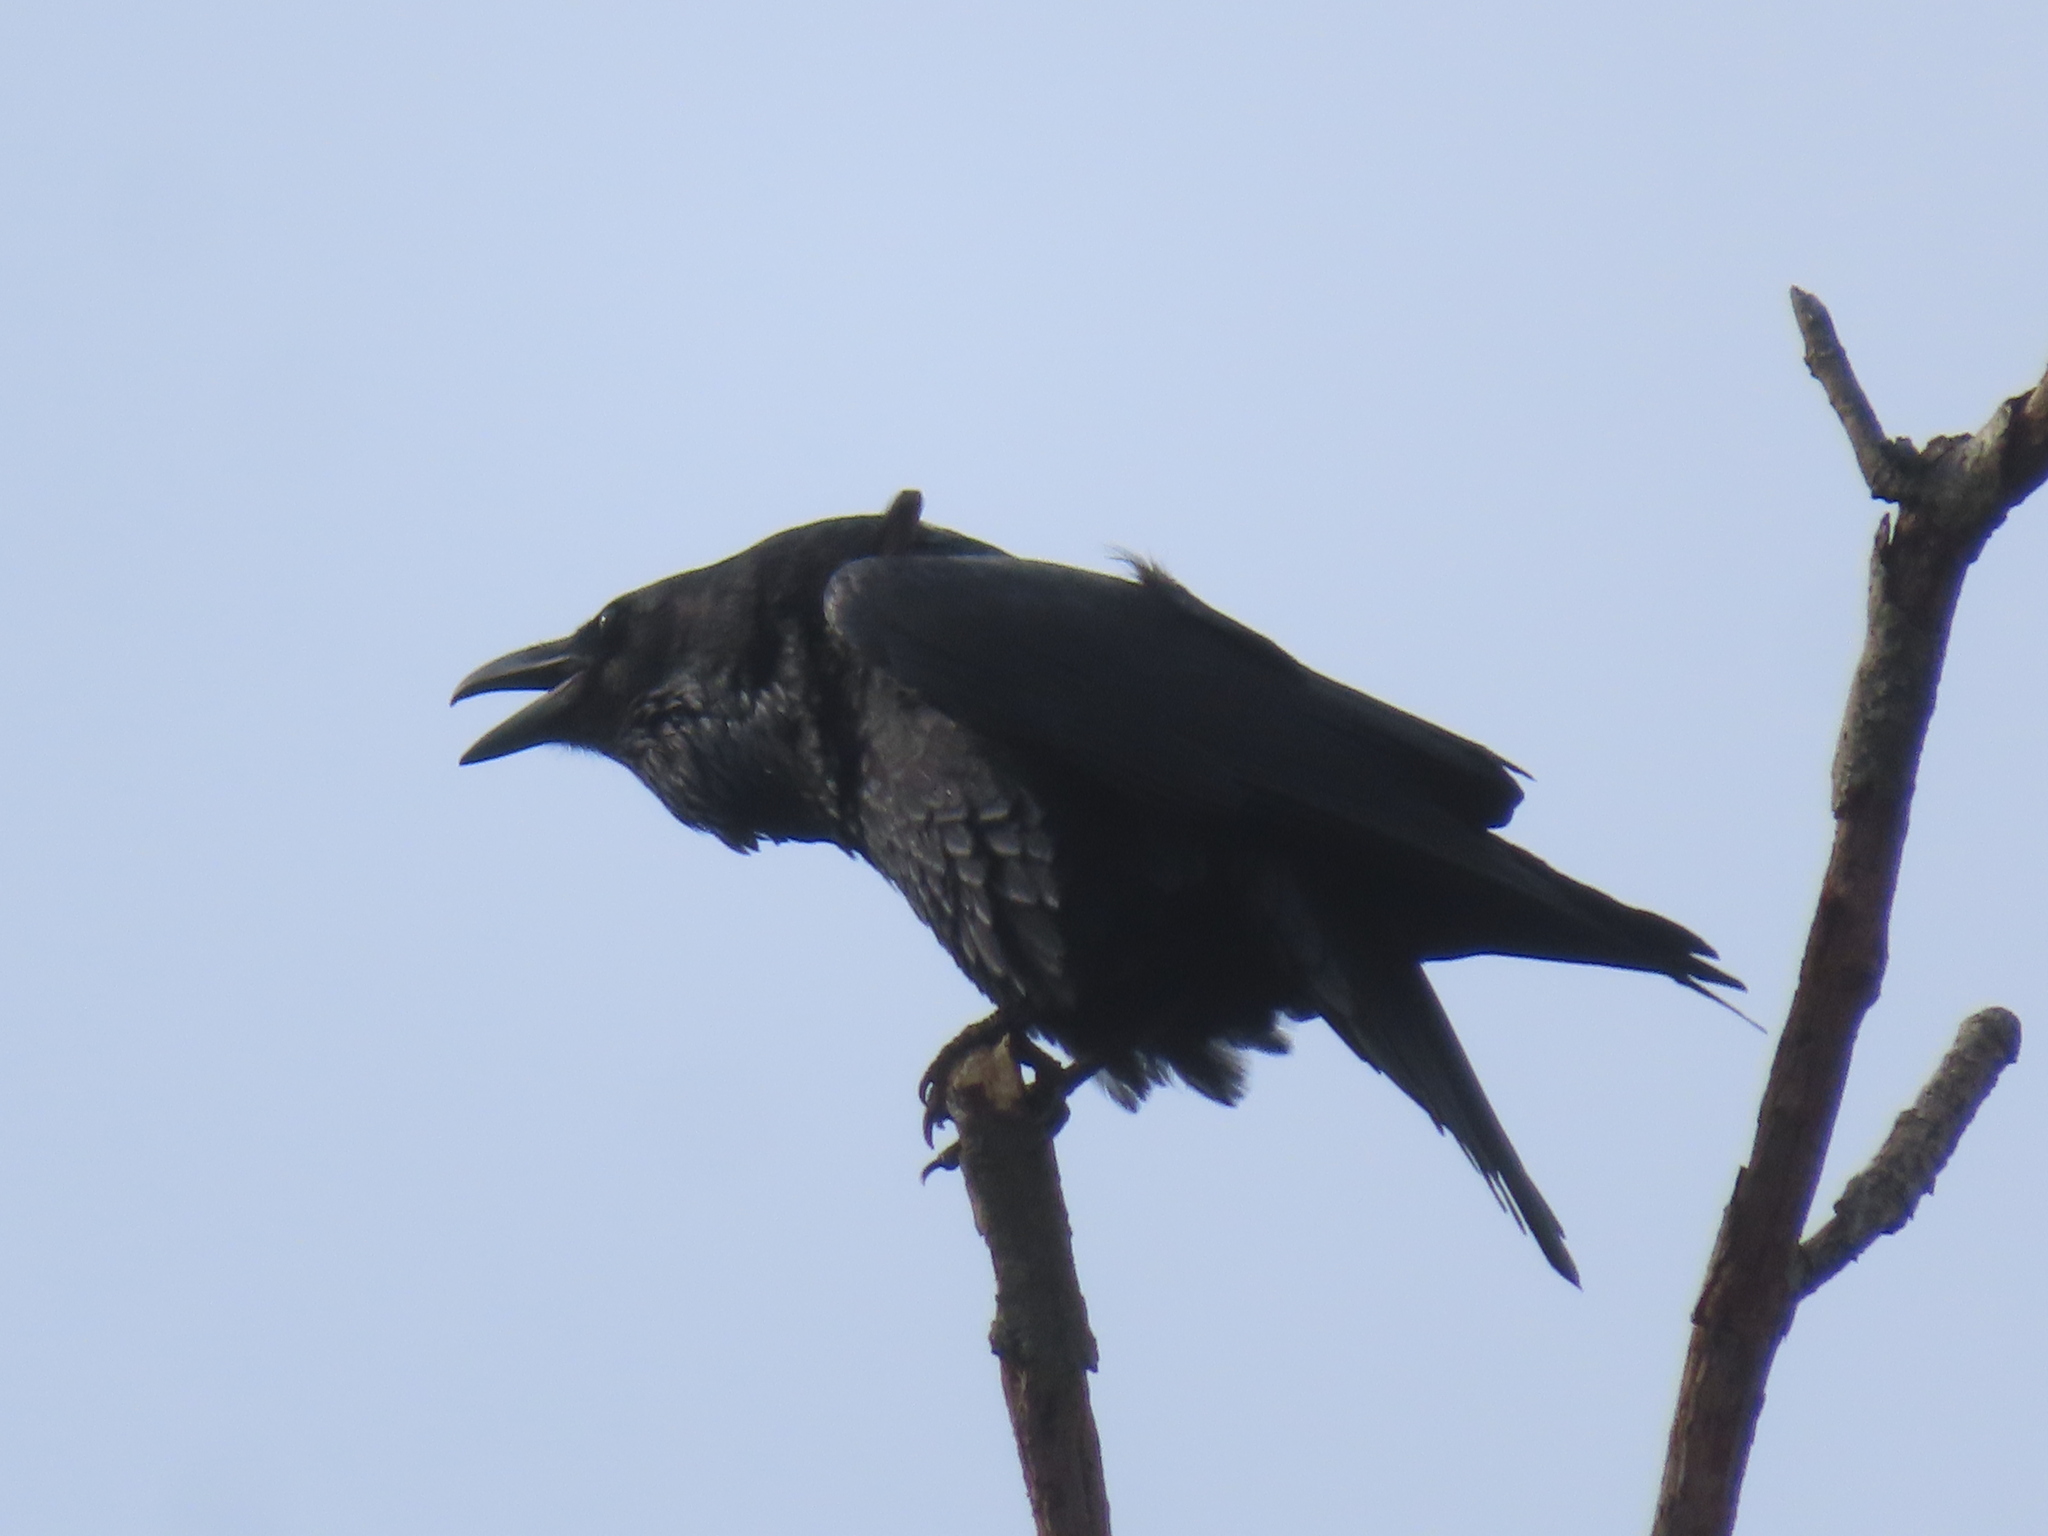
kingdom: Animalia
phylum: Chordata
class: Aves
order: Passeriformes
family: Corvidae
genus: Corvus
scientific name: Corvus corax
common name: Common raven
